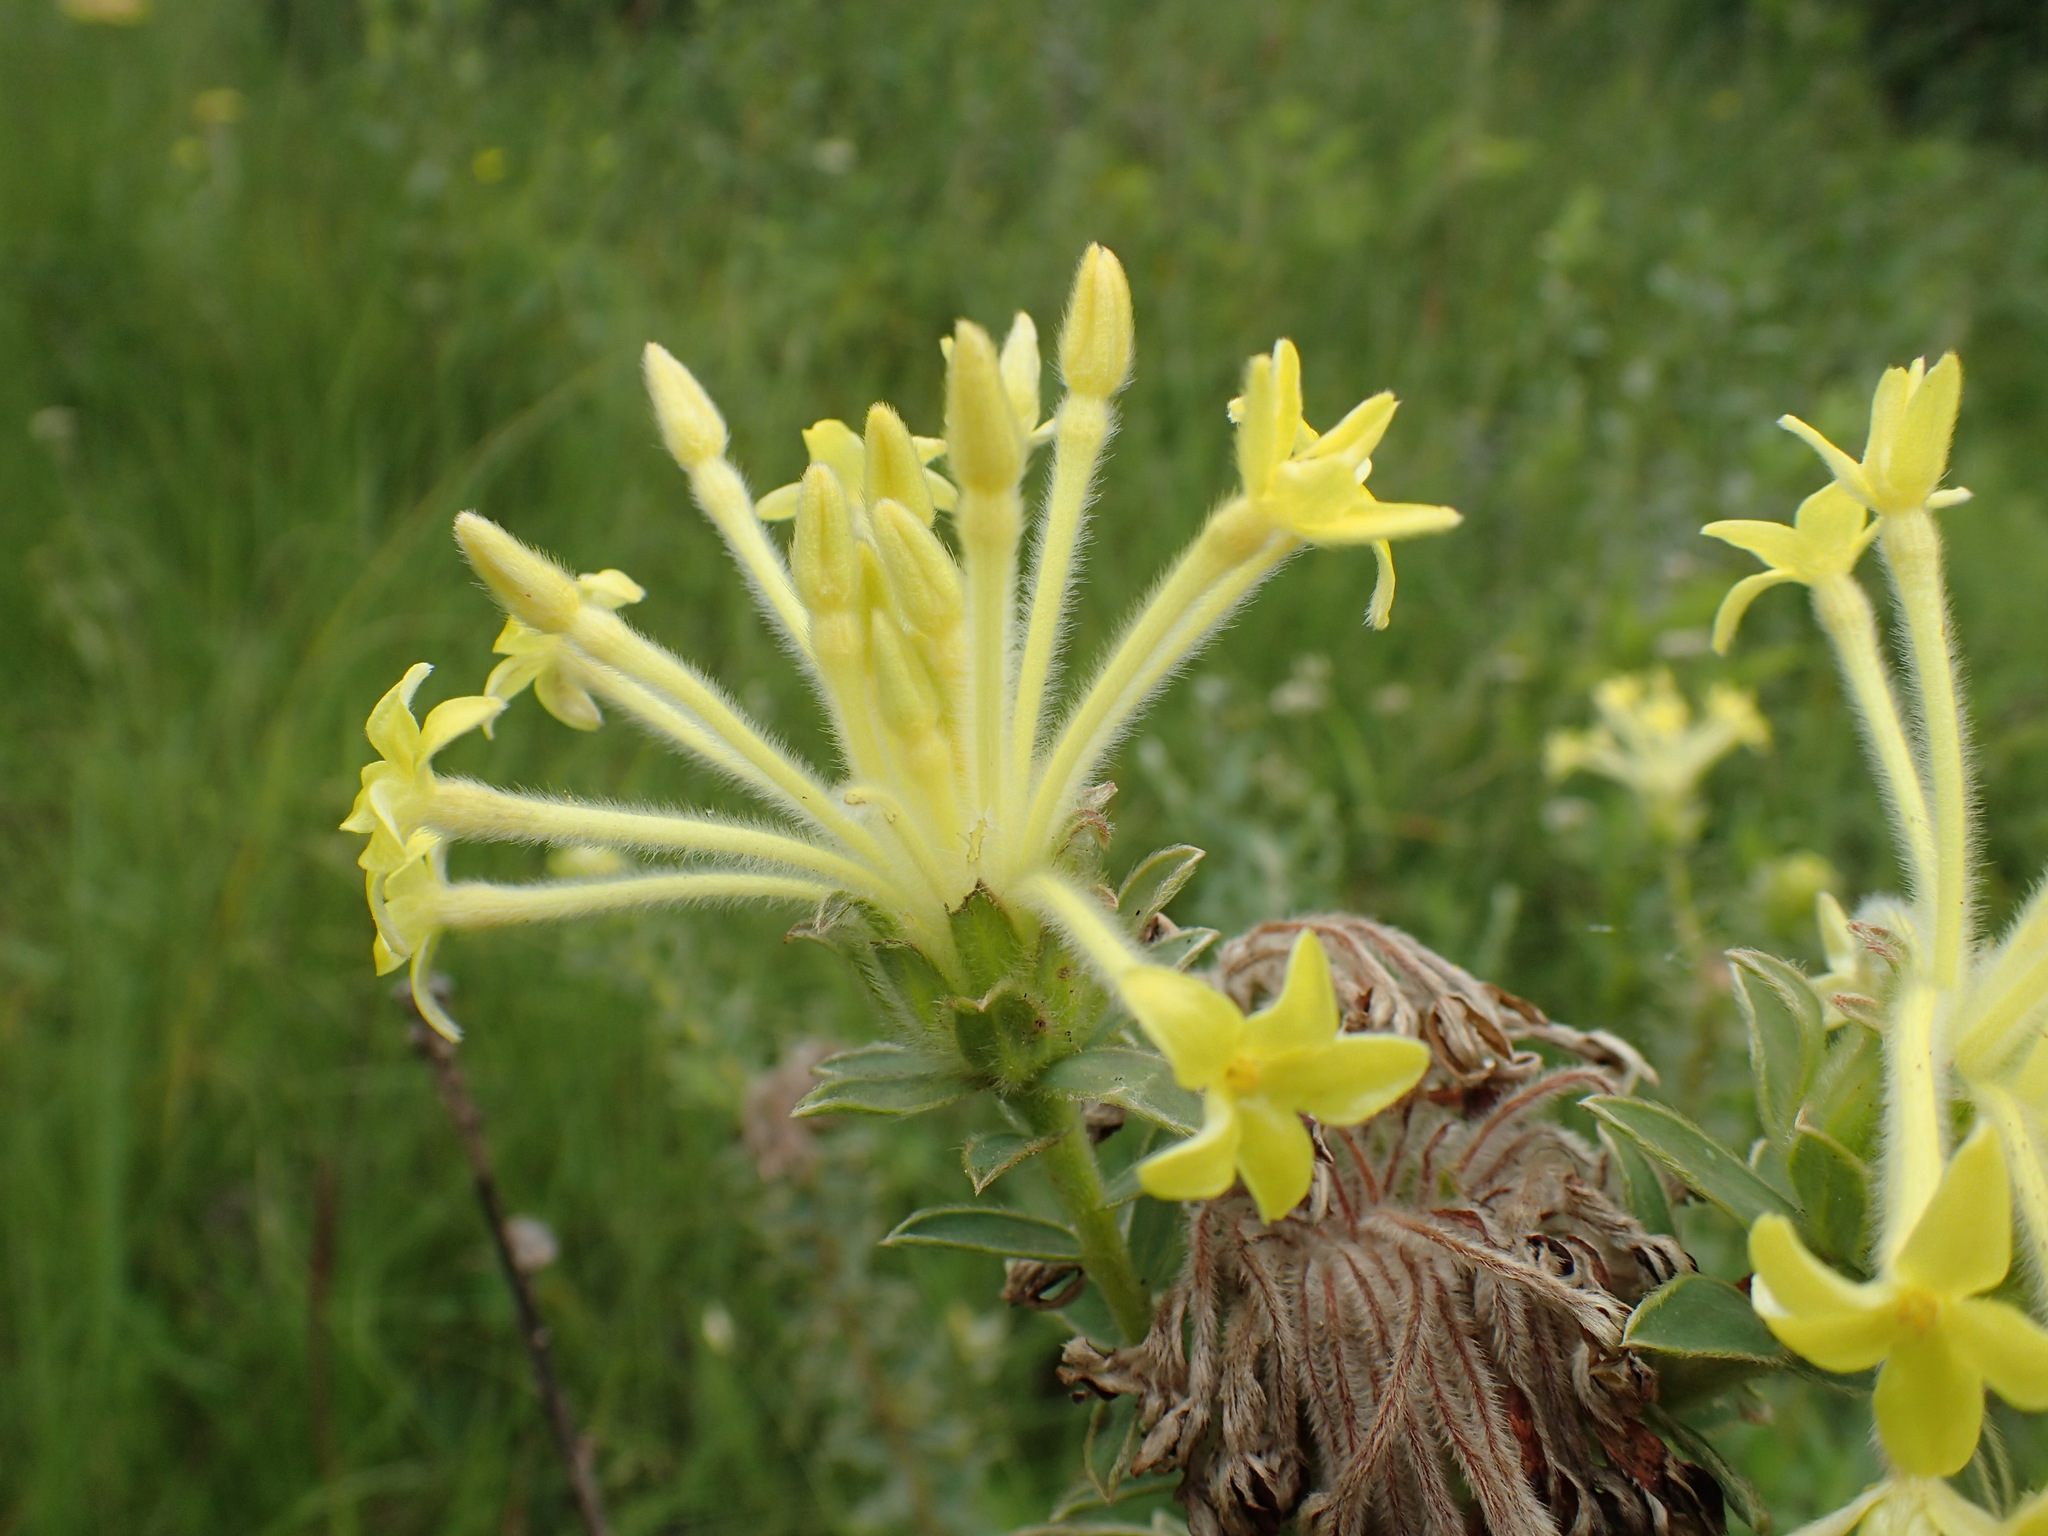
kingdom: Plantae
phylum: Tracheophyta
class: Magnoliopsida
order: Malvales
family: Thymelaeaceae
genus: Gnidia
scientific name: Gnidia anthylloides
